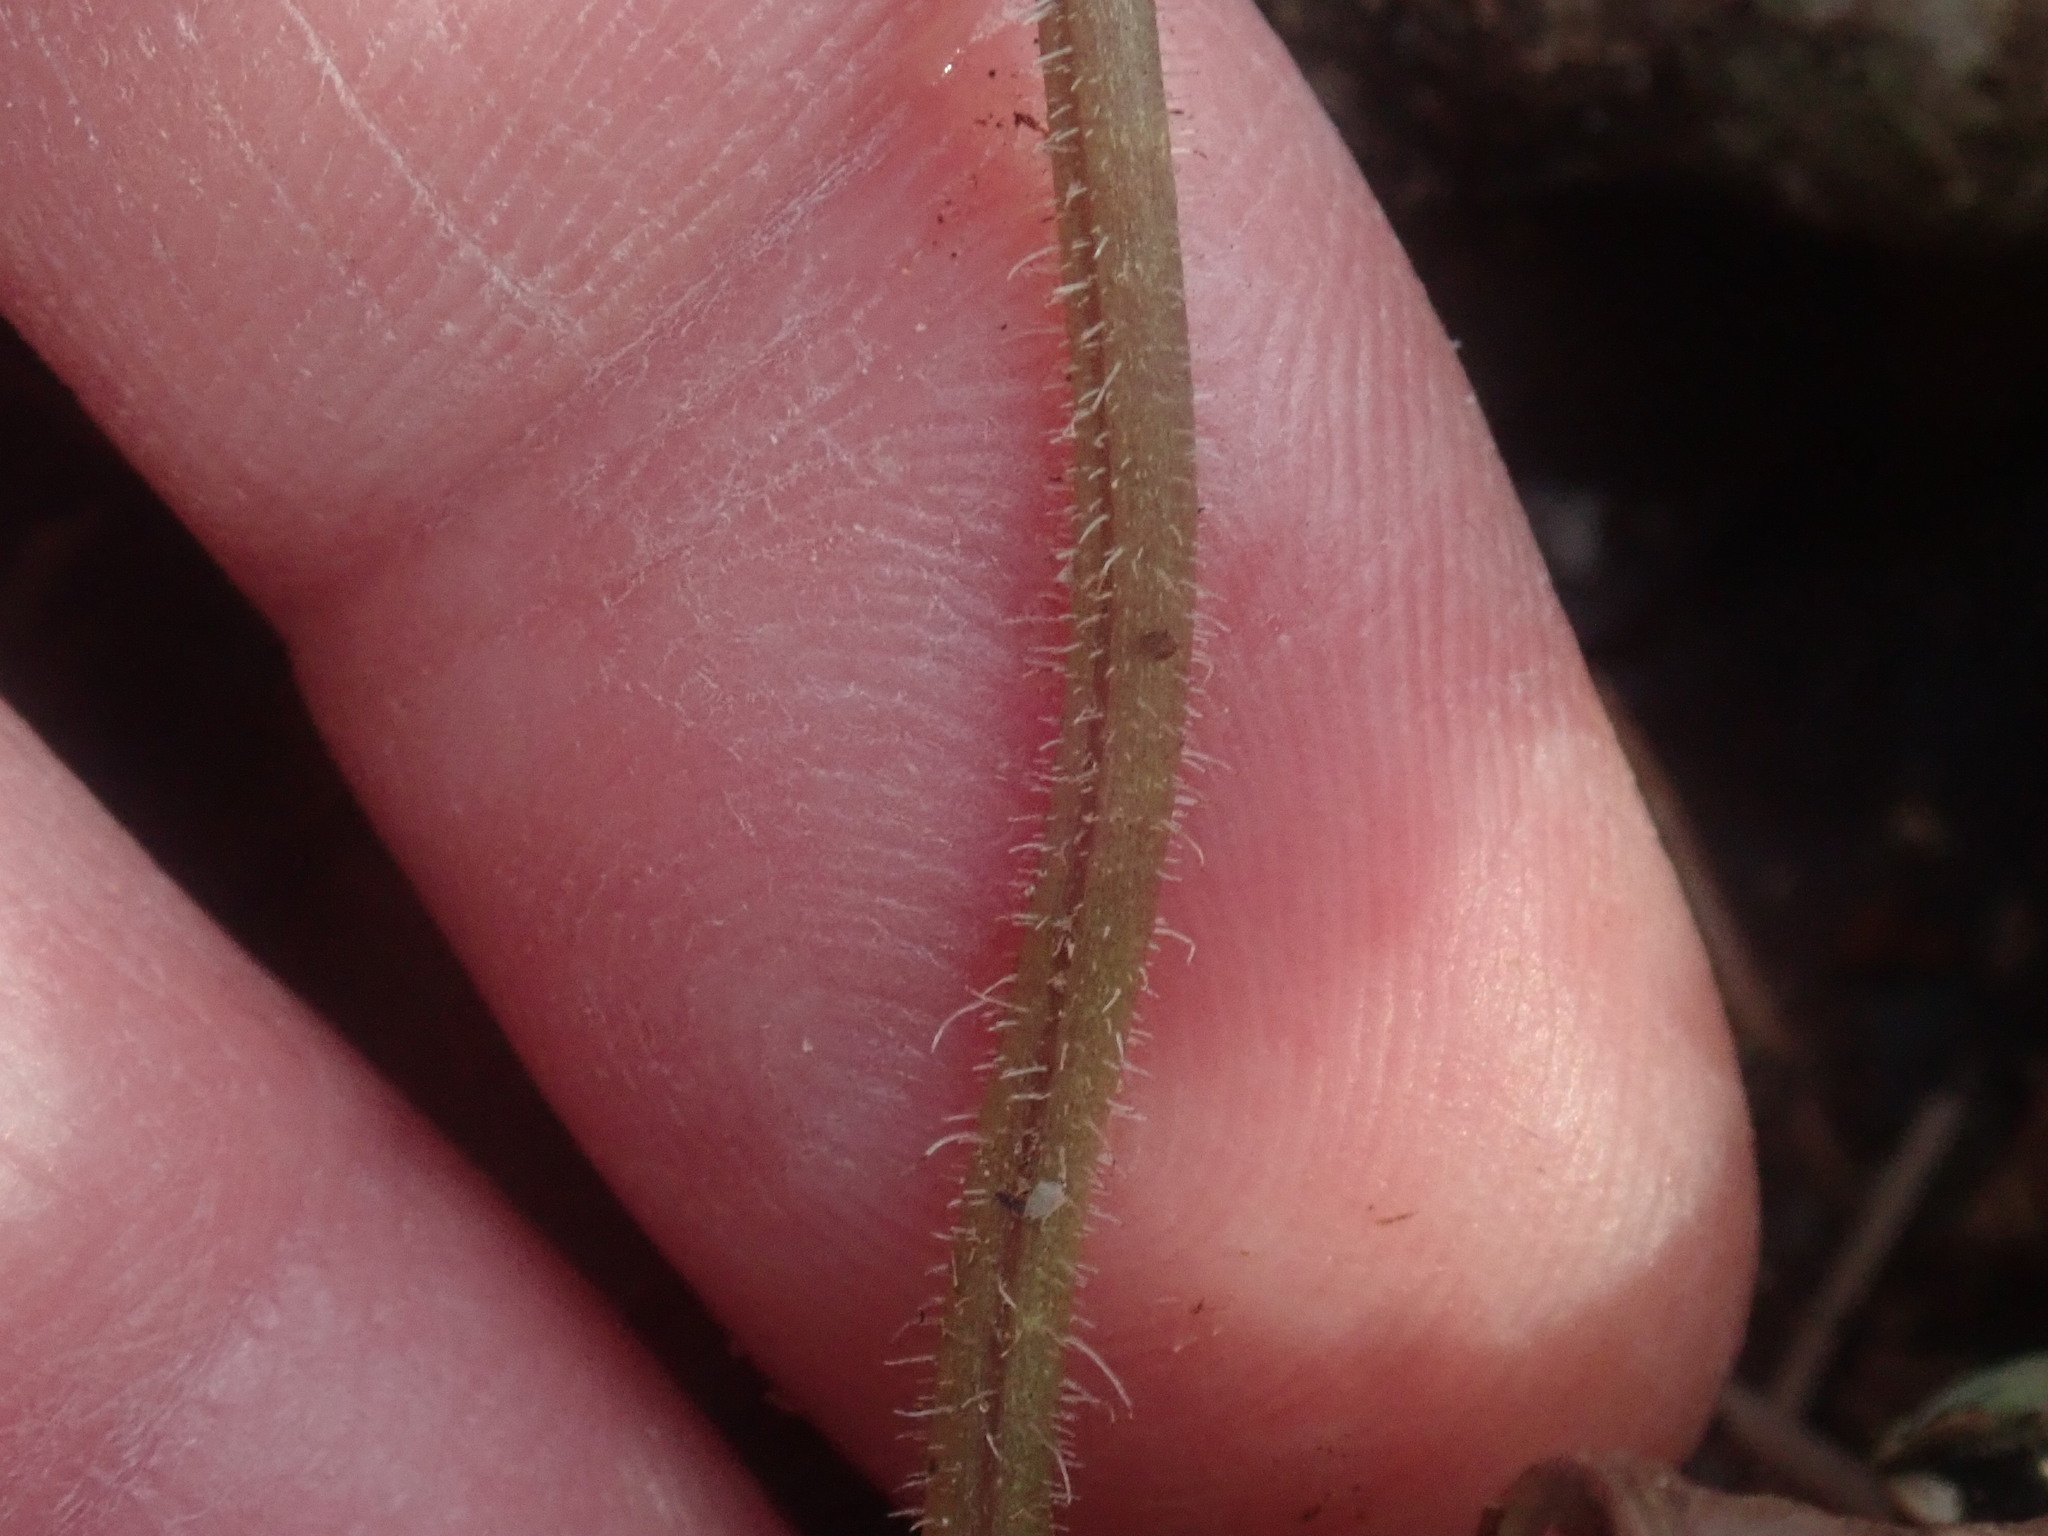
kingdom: Plantae
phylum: Tracheophyta
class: Magnoliopsida
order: Saxifragales
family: Saxifragaceae
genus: Tiarella
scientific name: Tiarella stolonifera
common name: Stoloniferous foamflower
